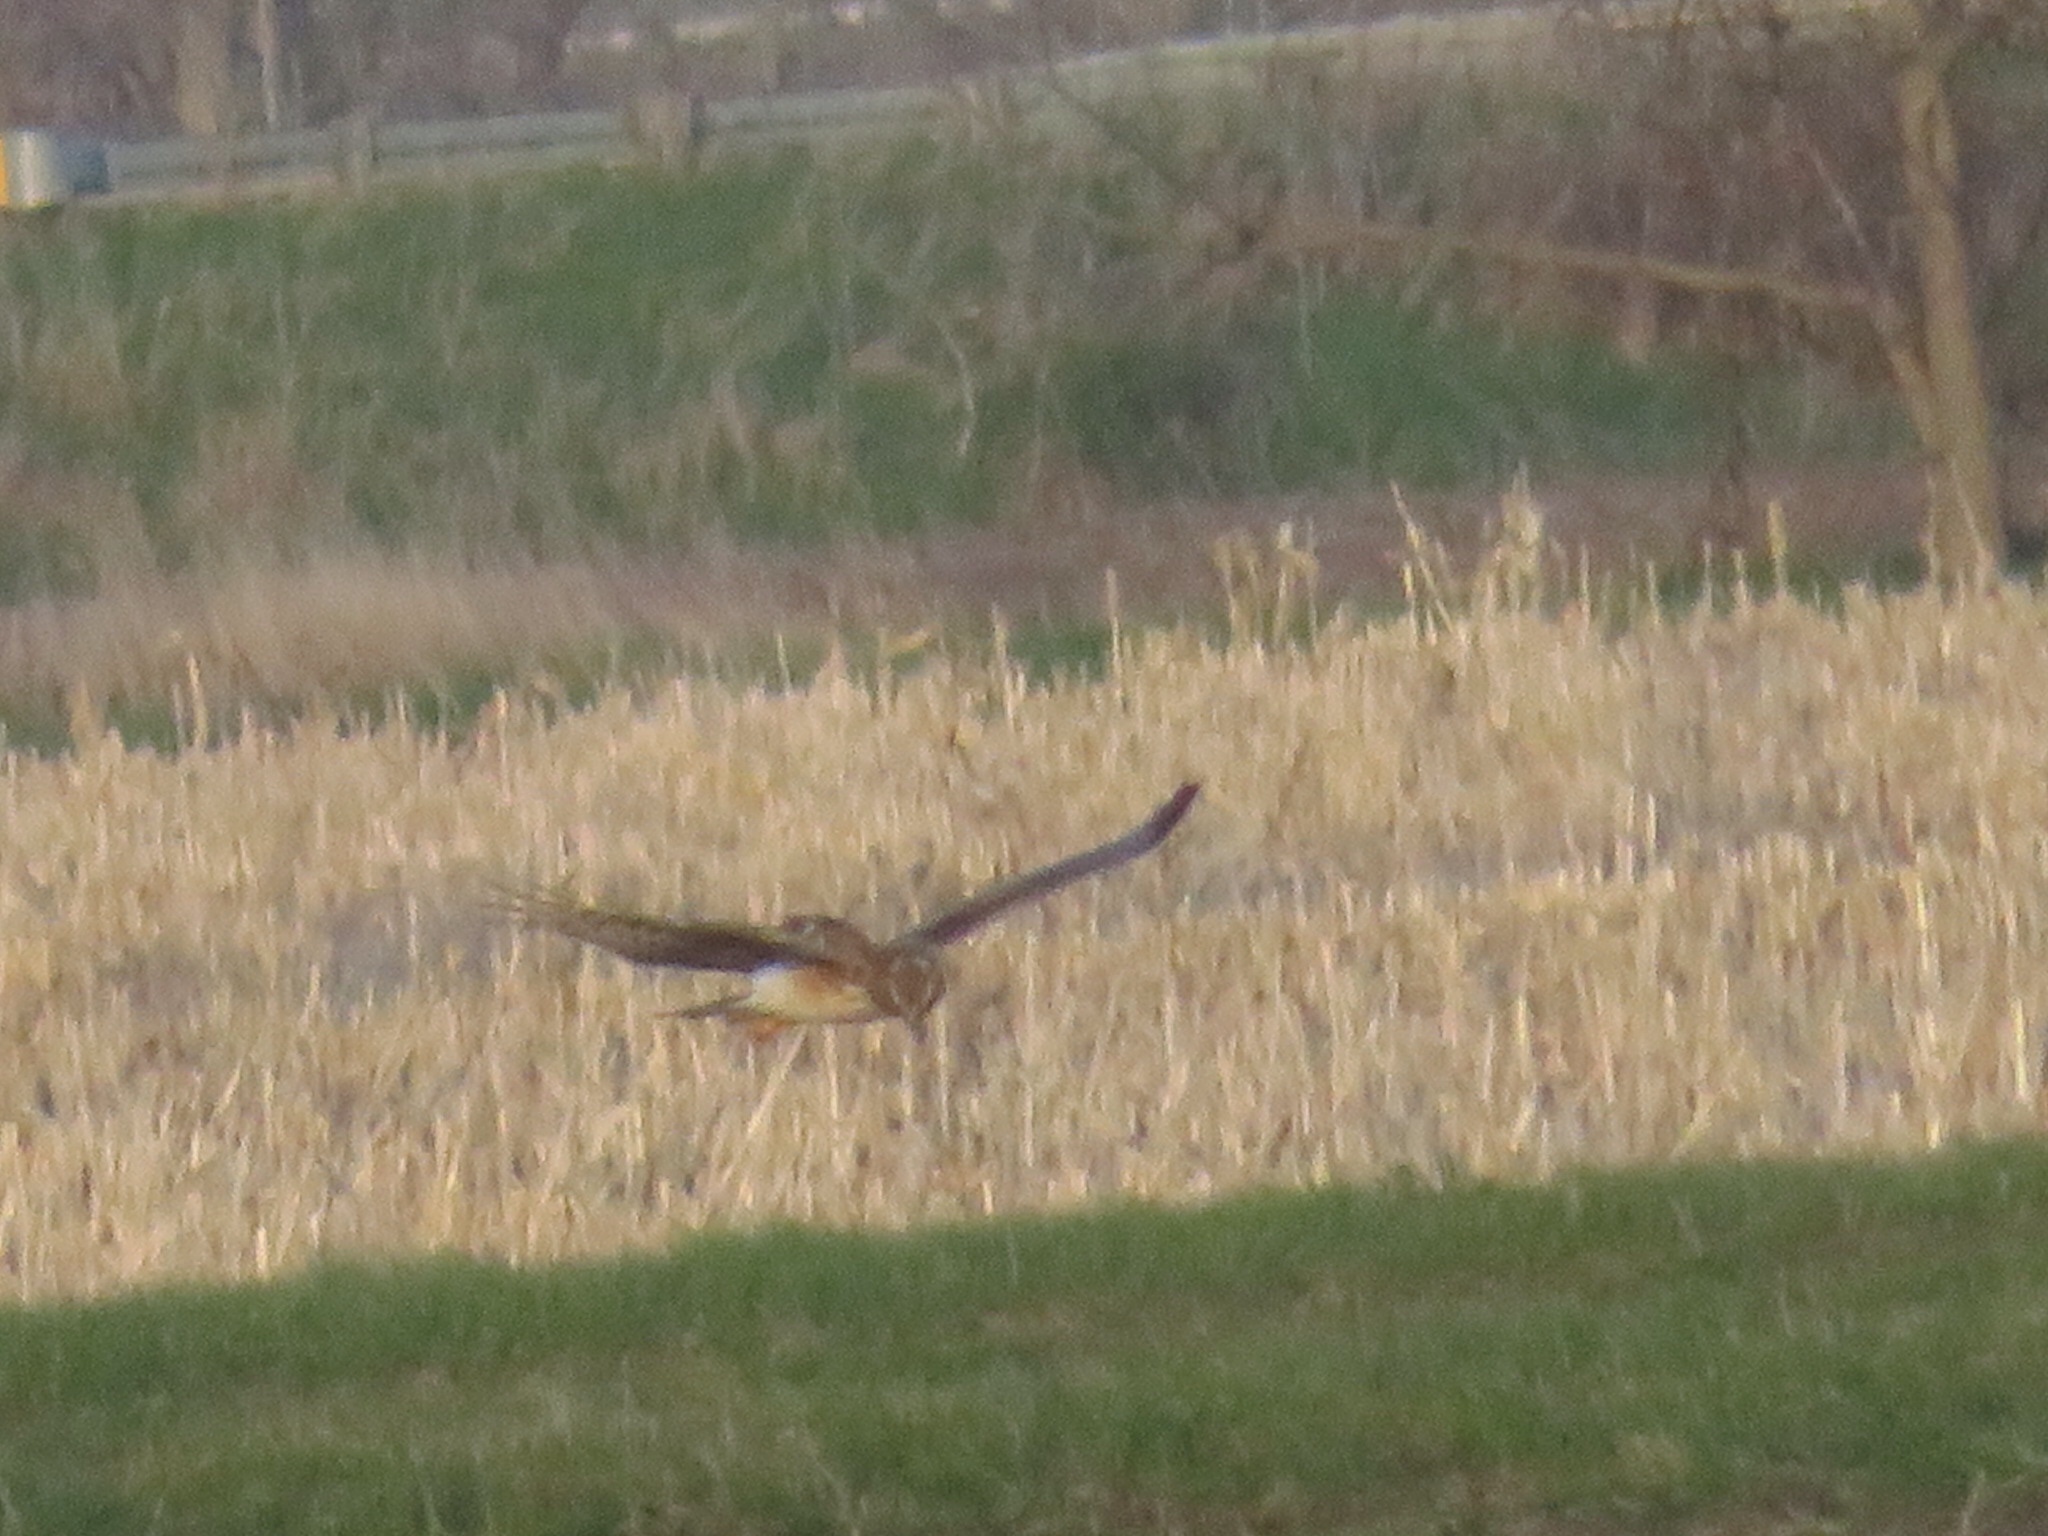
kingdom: Animalia
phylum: Chordata
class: Aves
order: Accipitriformes
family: Accipitridae
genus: Circus
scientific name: Circus cyaneus
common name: Hen harrier
